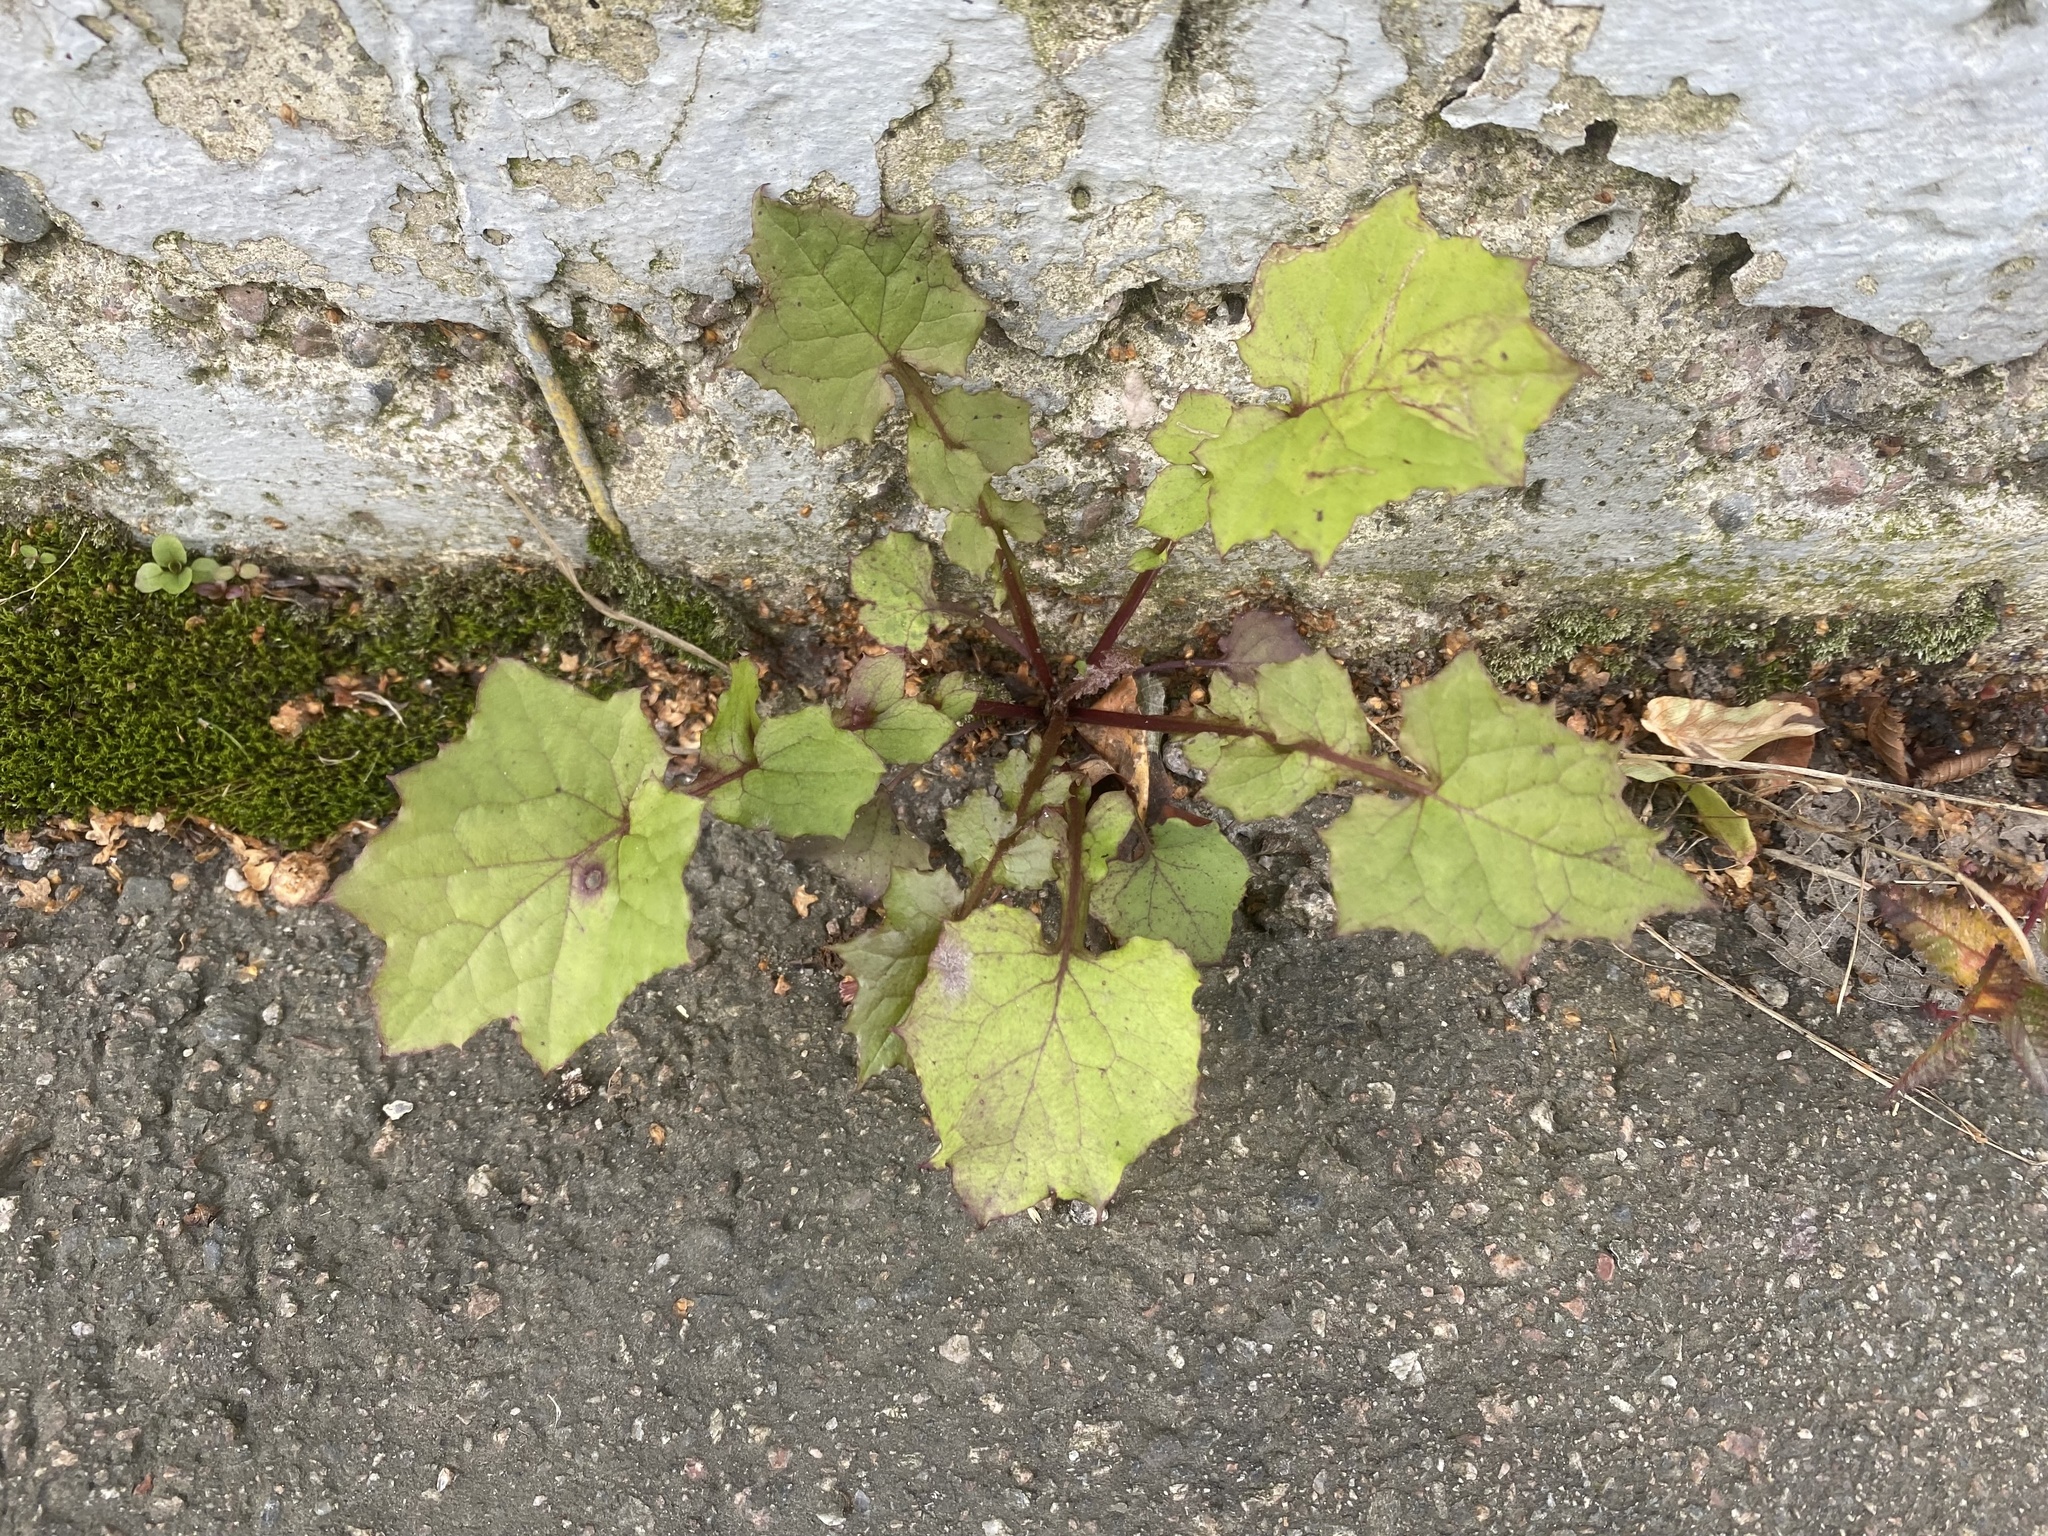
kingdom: Plantae
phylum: Tracheophyta
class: Magnoliopsida
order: Asterales
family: Asteraceae
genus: Mycelis
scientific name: Mycelis muralis
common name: Wall lettuce
